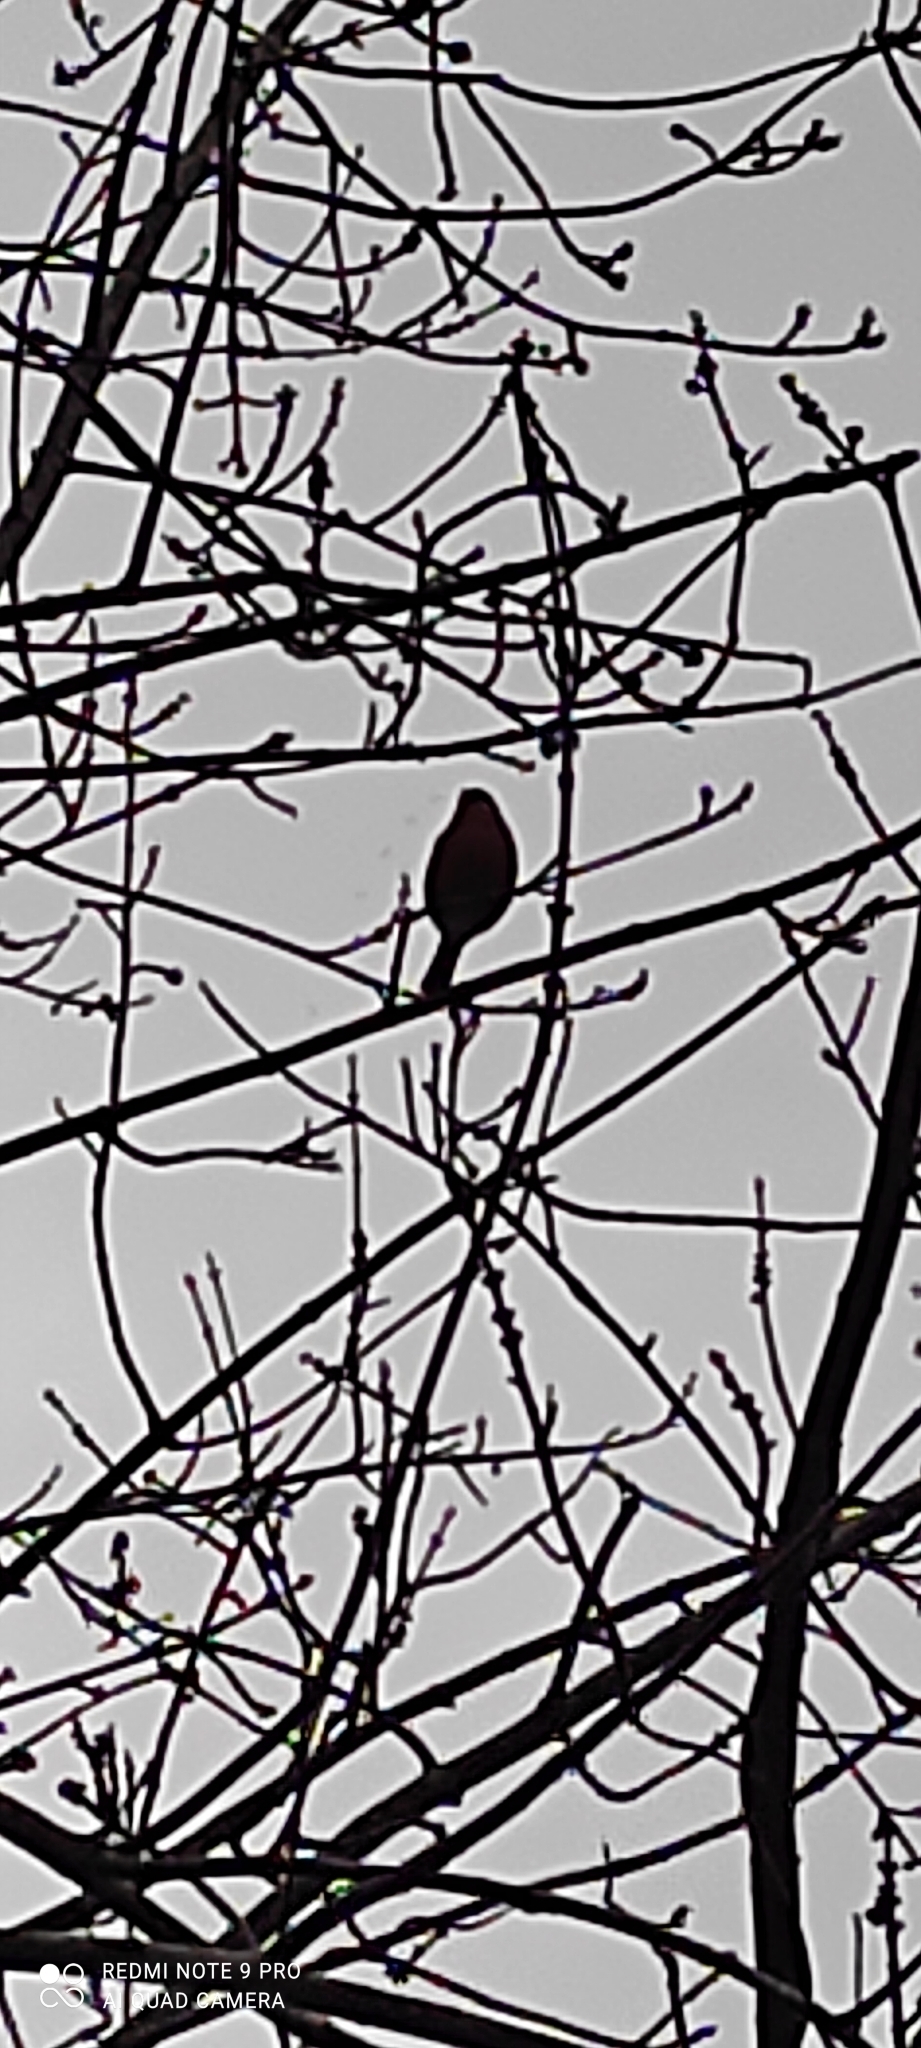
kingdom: Animalia
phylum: Chordata
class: Aves
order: Passeriformes
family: Fringillidae
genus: Pyrrhula
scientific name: Pyrrhula pyrrhula
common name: Eurasian bullfinch
